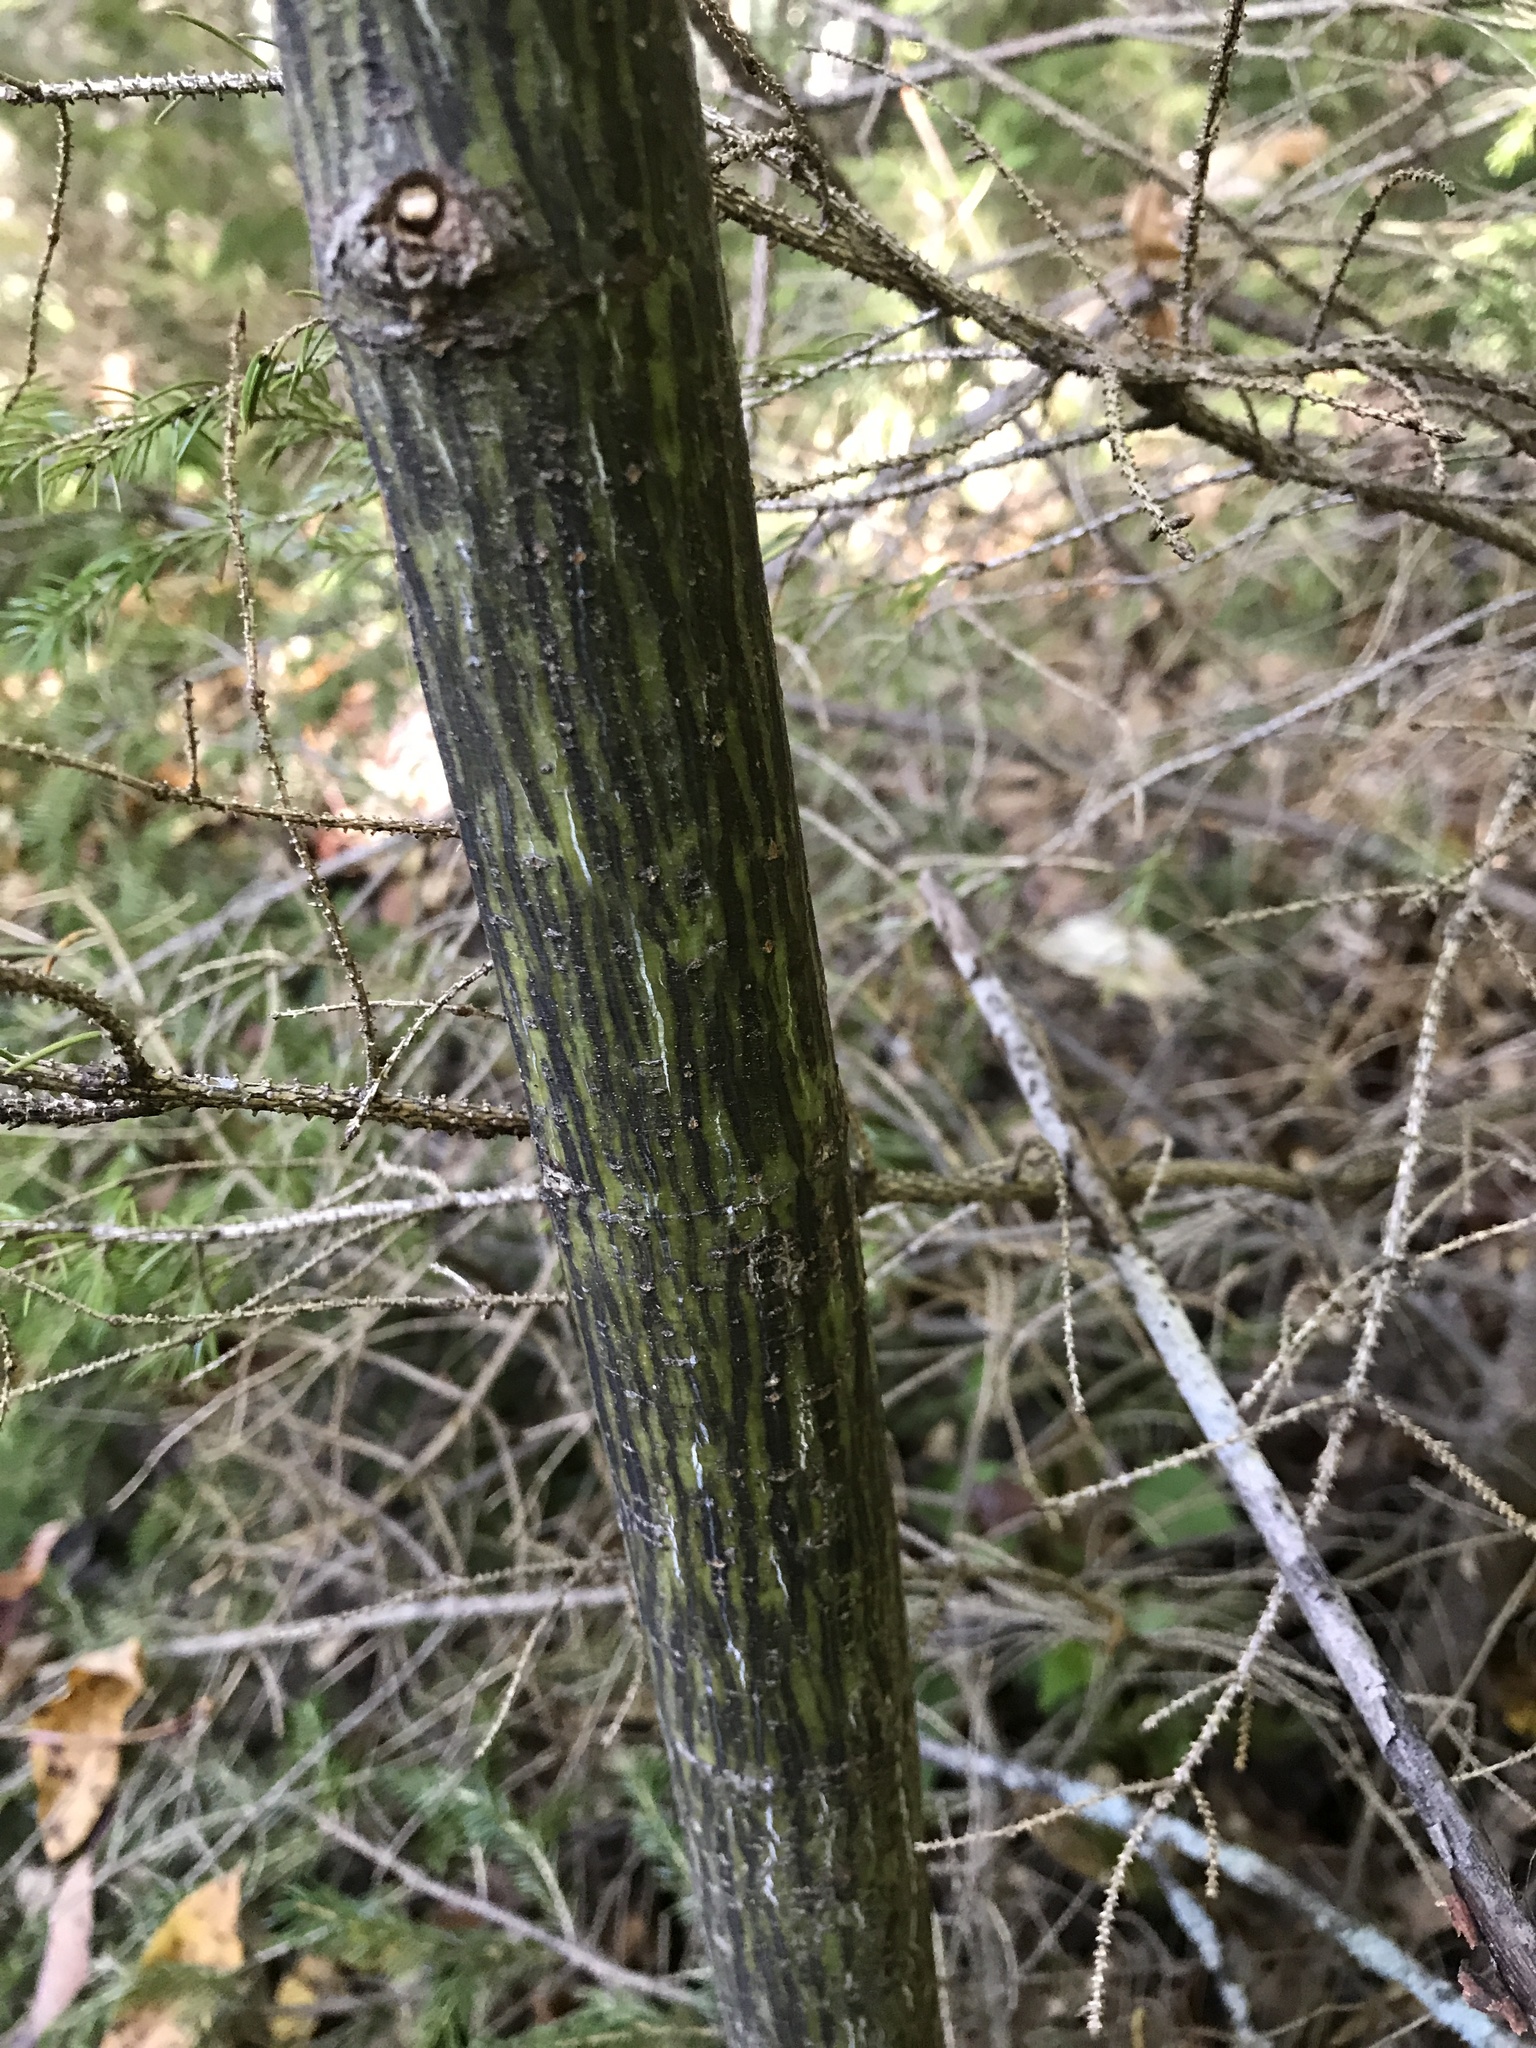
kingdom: Plantae
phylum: Tracheophyta
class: Magnoliopsida
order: Sapindales
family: Sapindaceae
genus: Acer
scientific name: Acer pensylvanicum
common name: Moosewood
